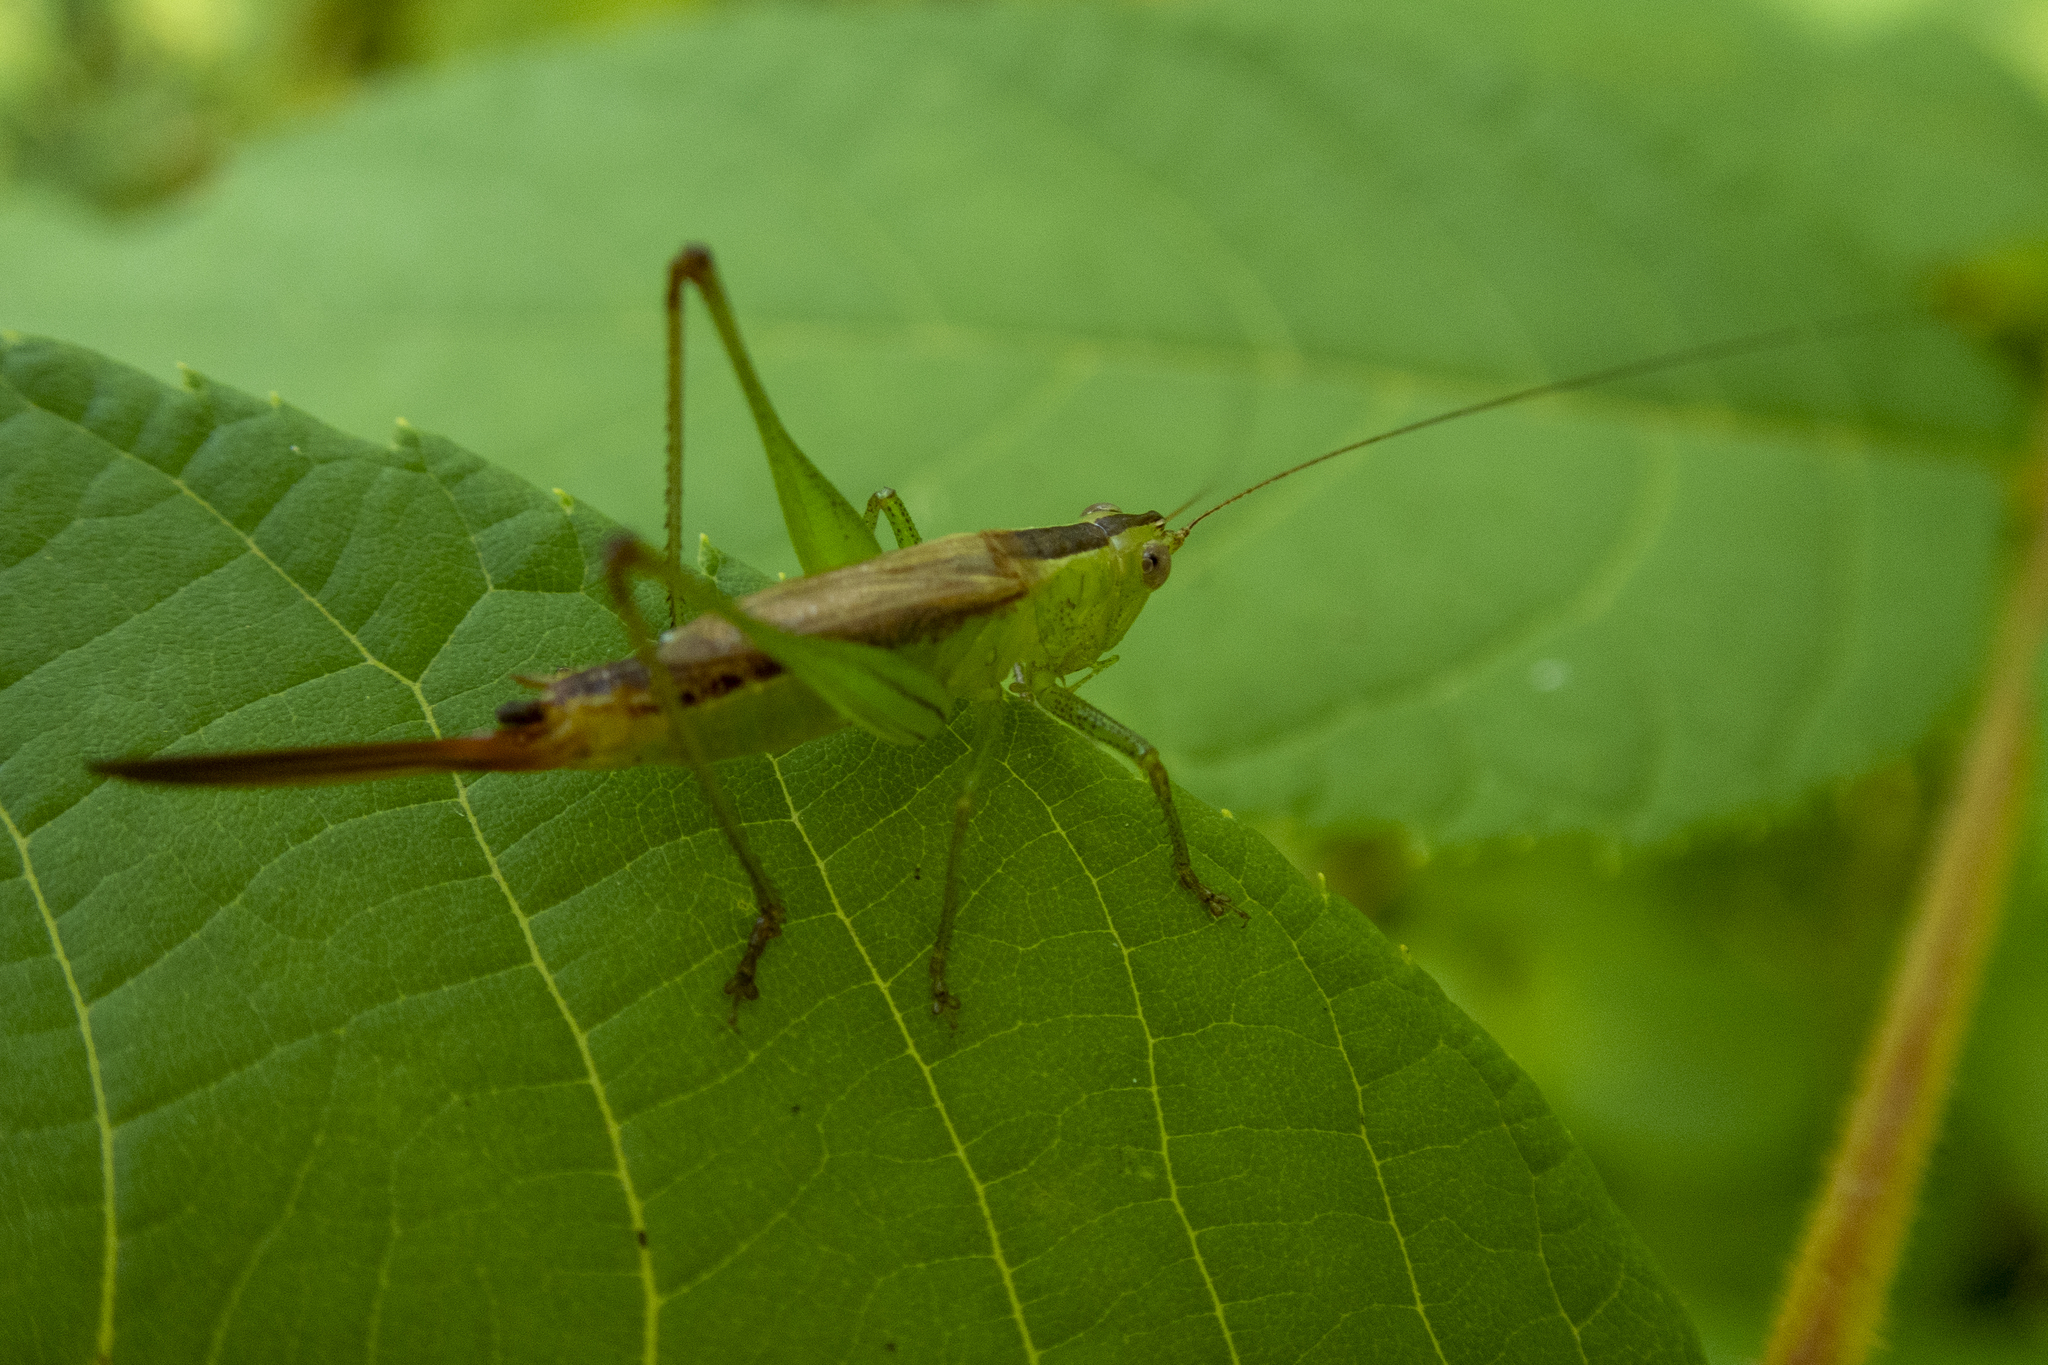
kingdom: Animalia
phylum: Arthropoda
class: Insecta
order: Orthoptera
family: Tettigoniidae
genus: Conocephalus
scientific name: Conocephalus brevipennis
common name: Short-winged meadow katydid
